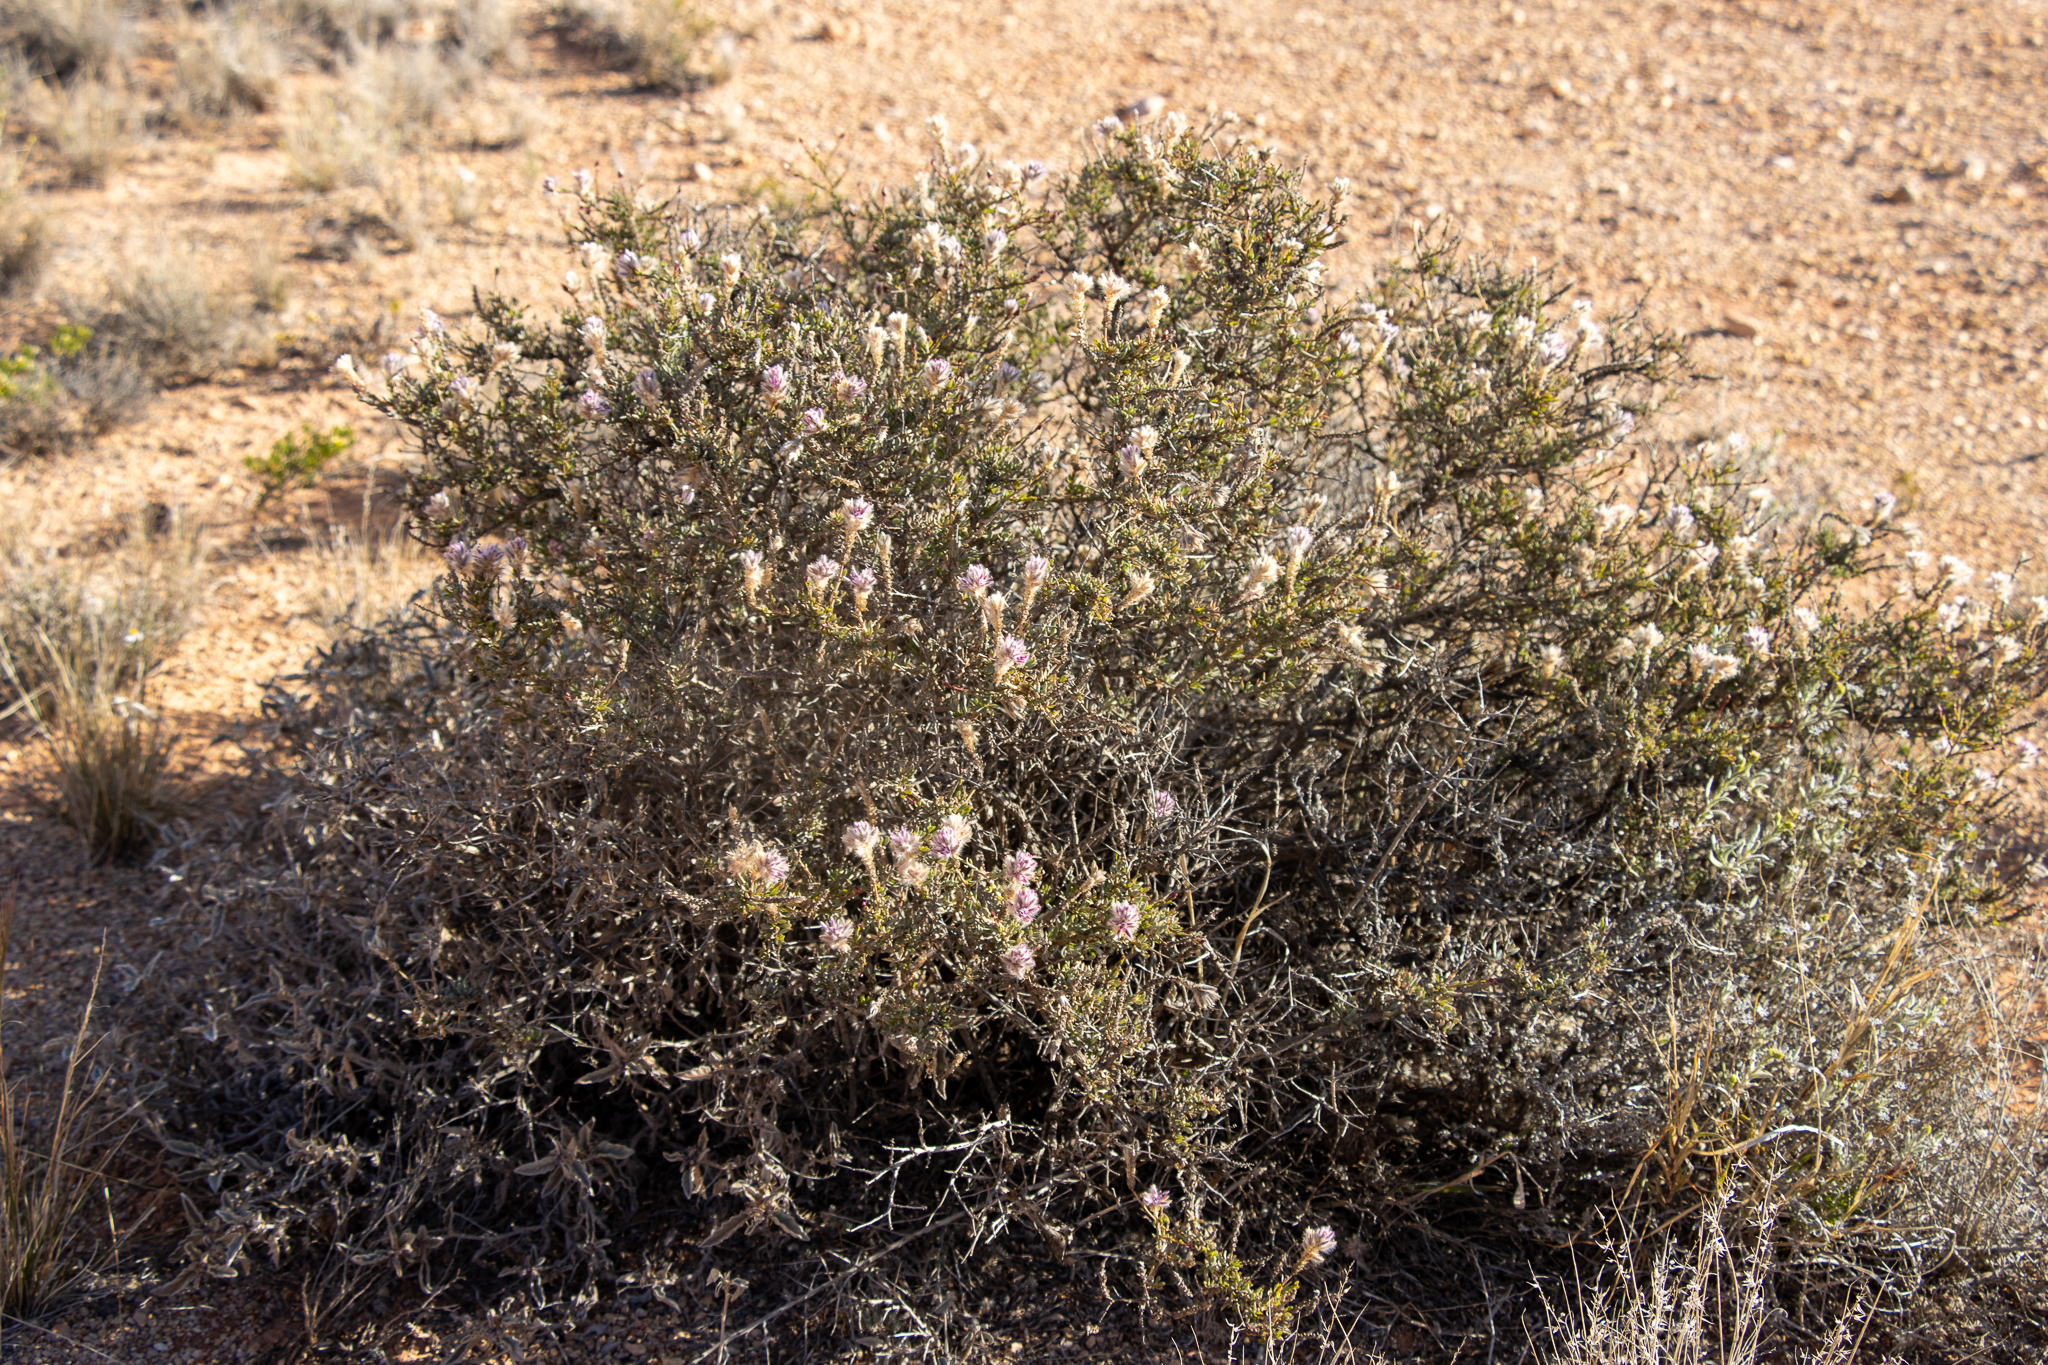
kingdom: Plantae
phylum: Tracheophyta
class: Magnoliopsida
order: Caryophyllales
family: Amaranthaceae
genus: Ptilotus
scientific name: Ptilotus whitei
